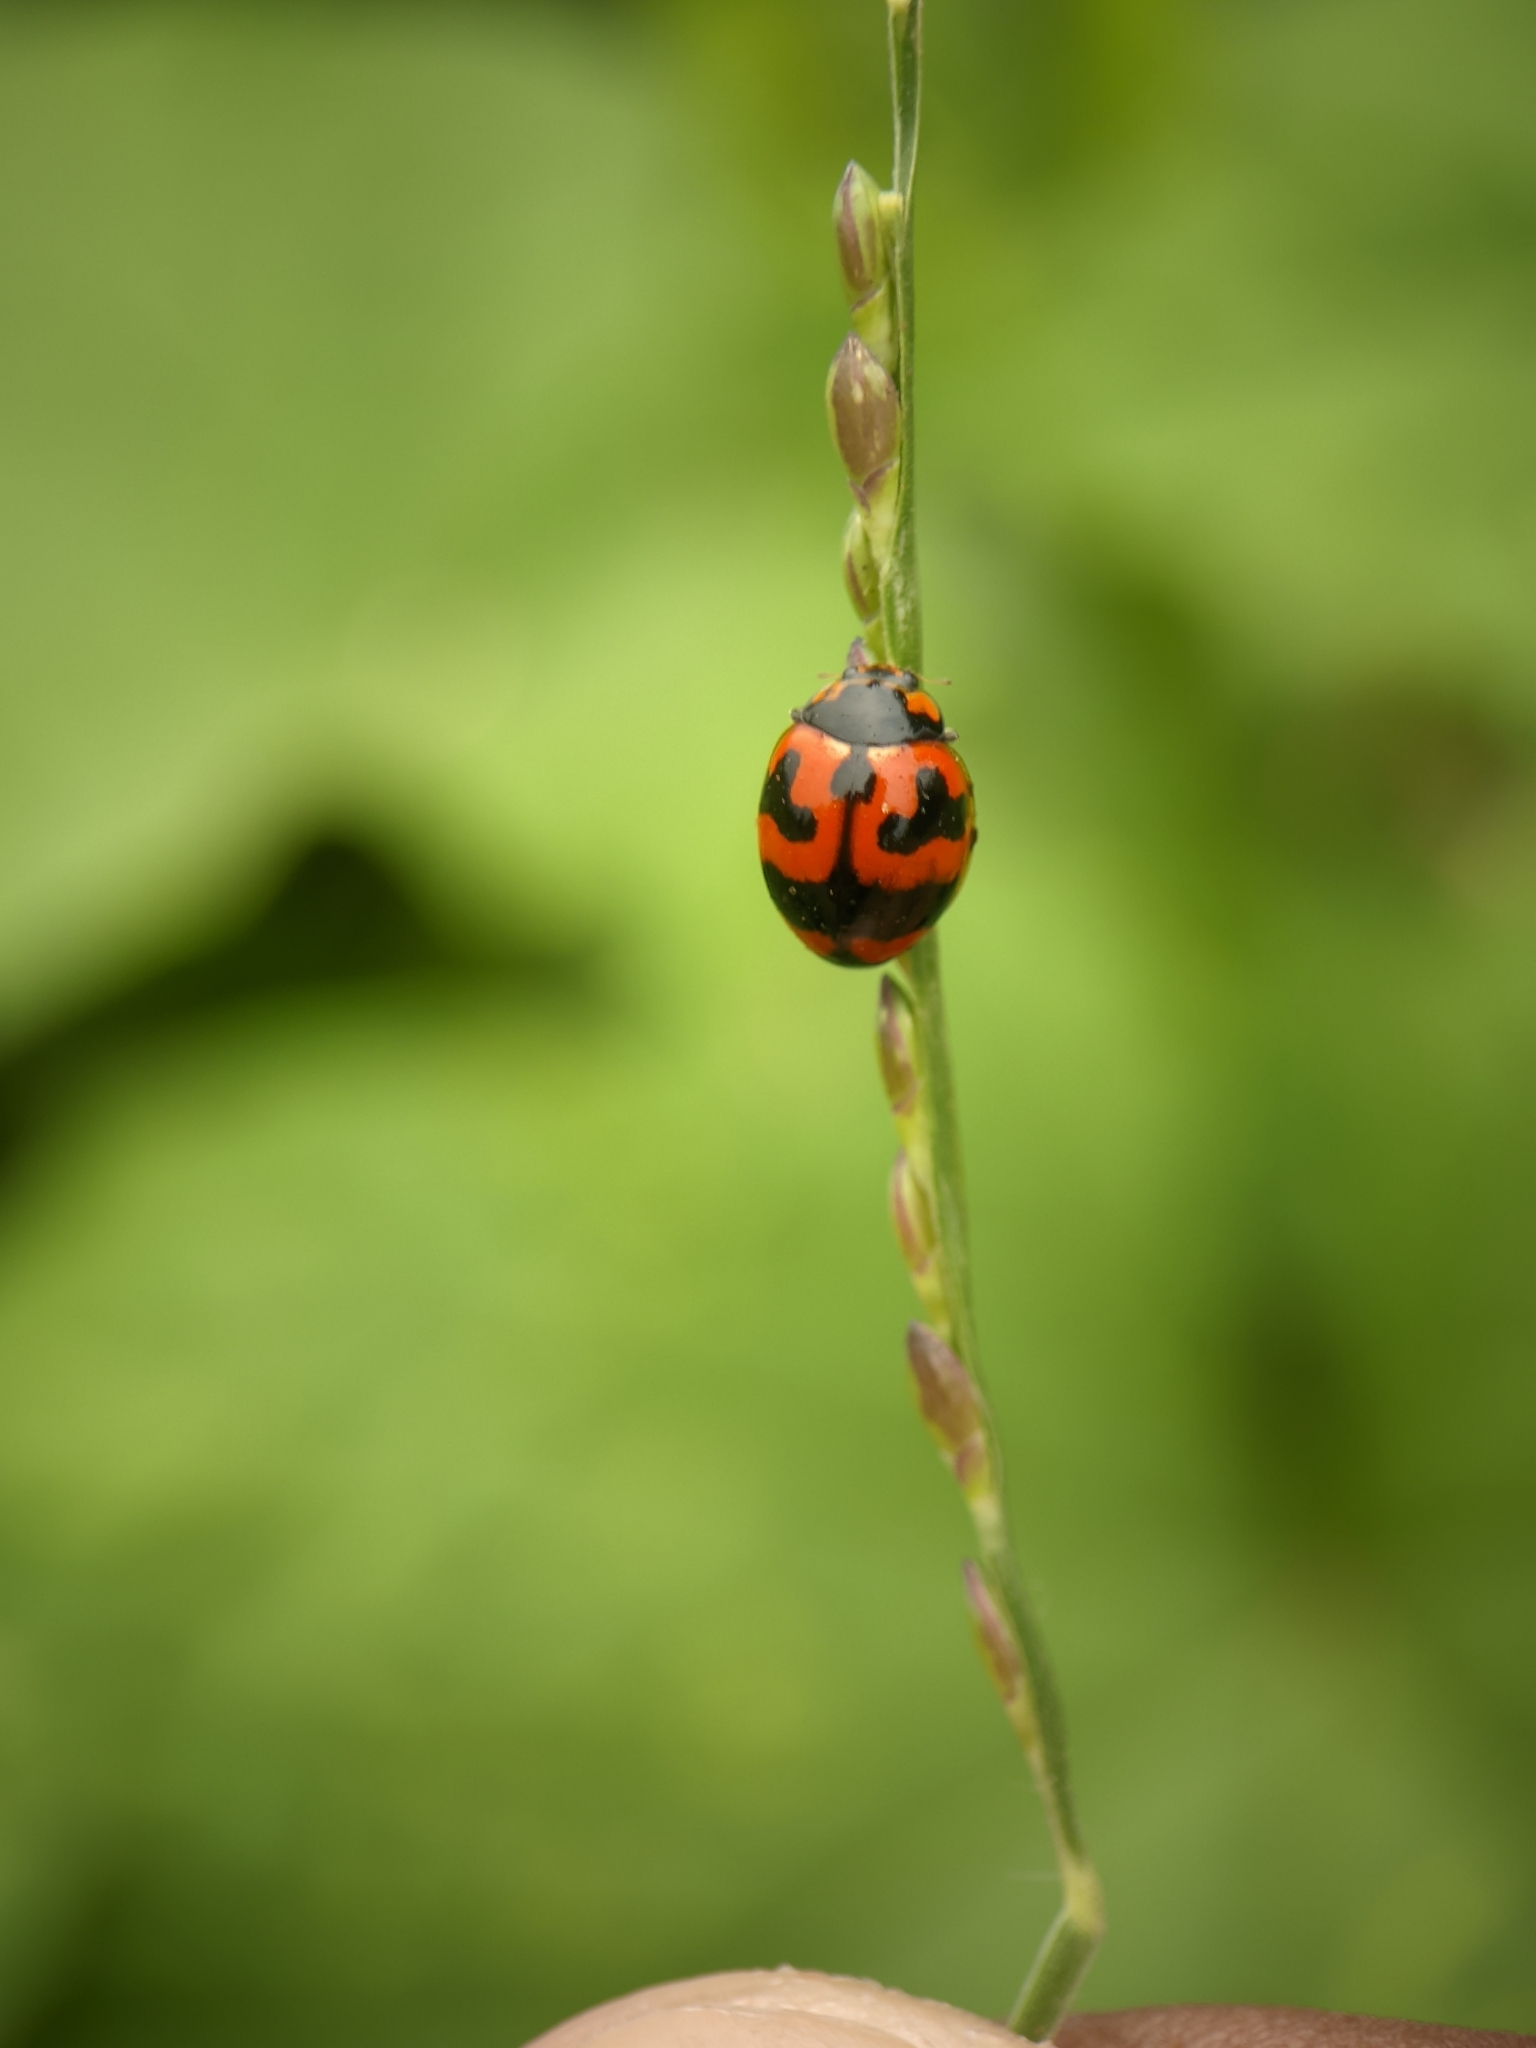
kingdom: Animalia
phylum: Arthropoda
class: Insecta
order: Coleoptera
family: Coccinellidae
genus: Coccinella
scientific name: Coccinella transversalis
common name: Transverse lady beetle
